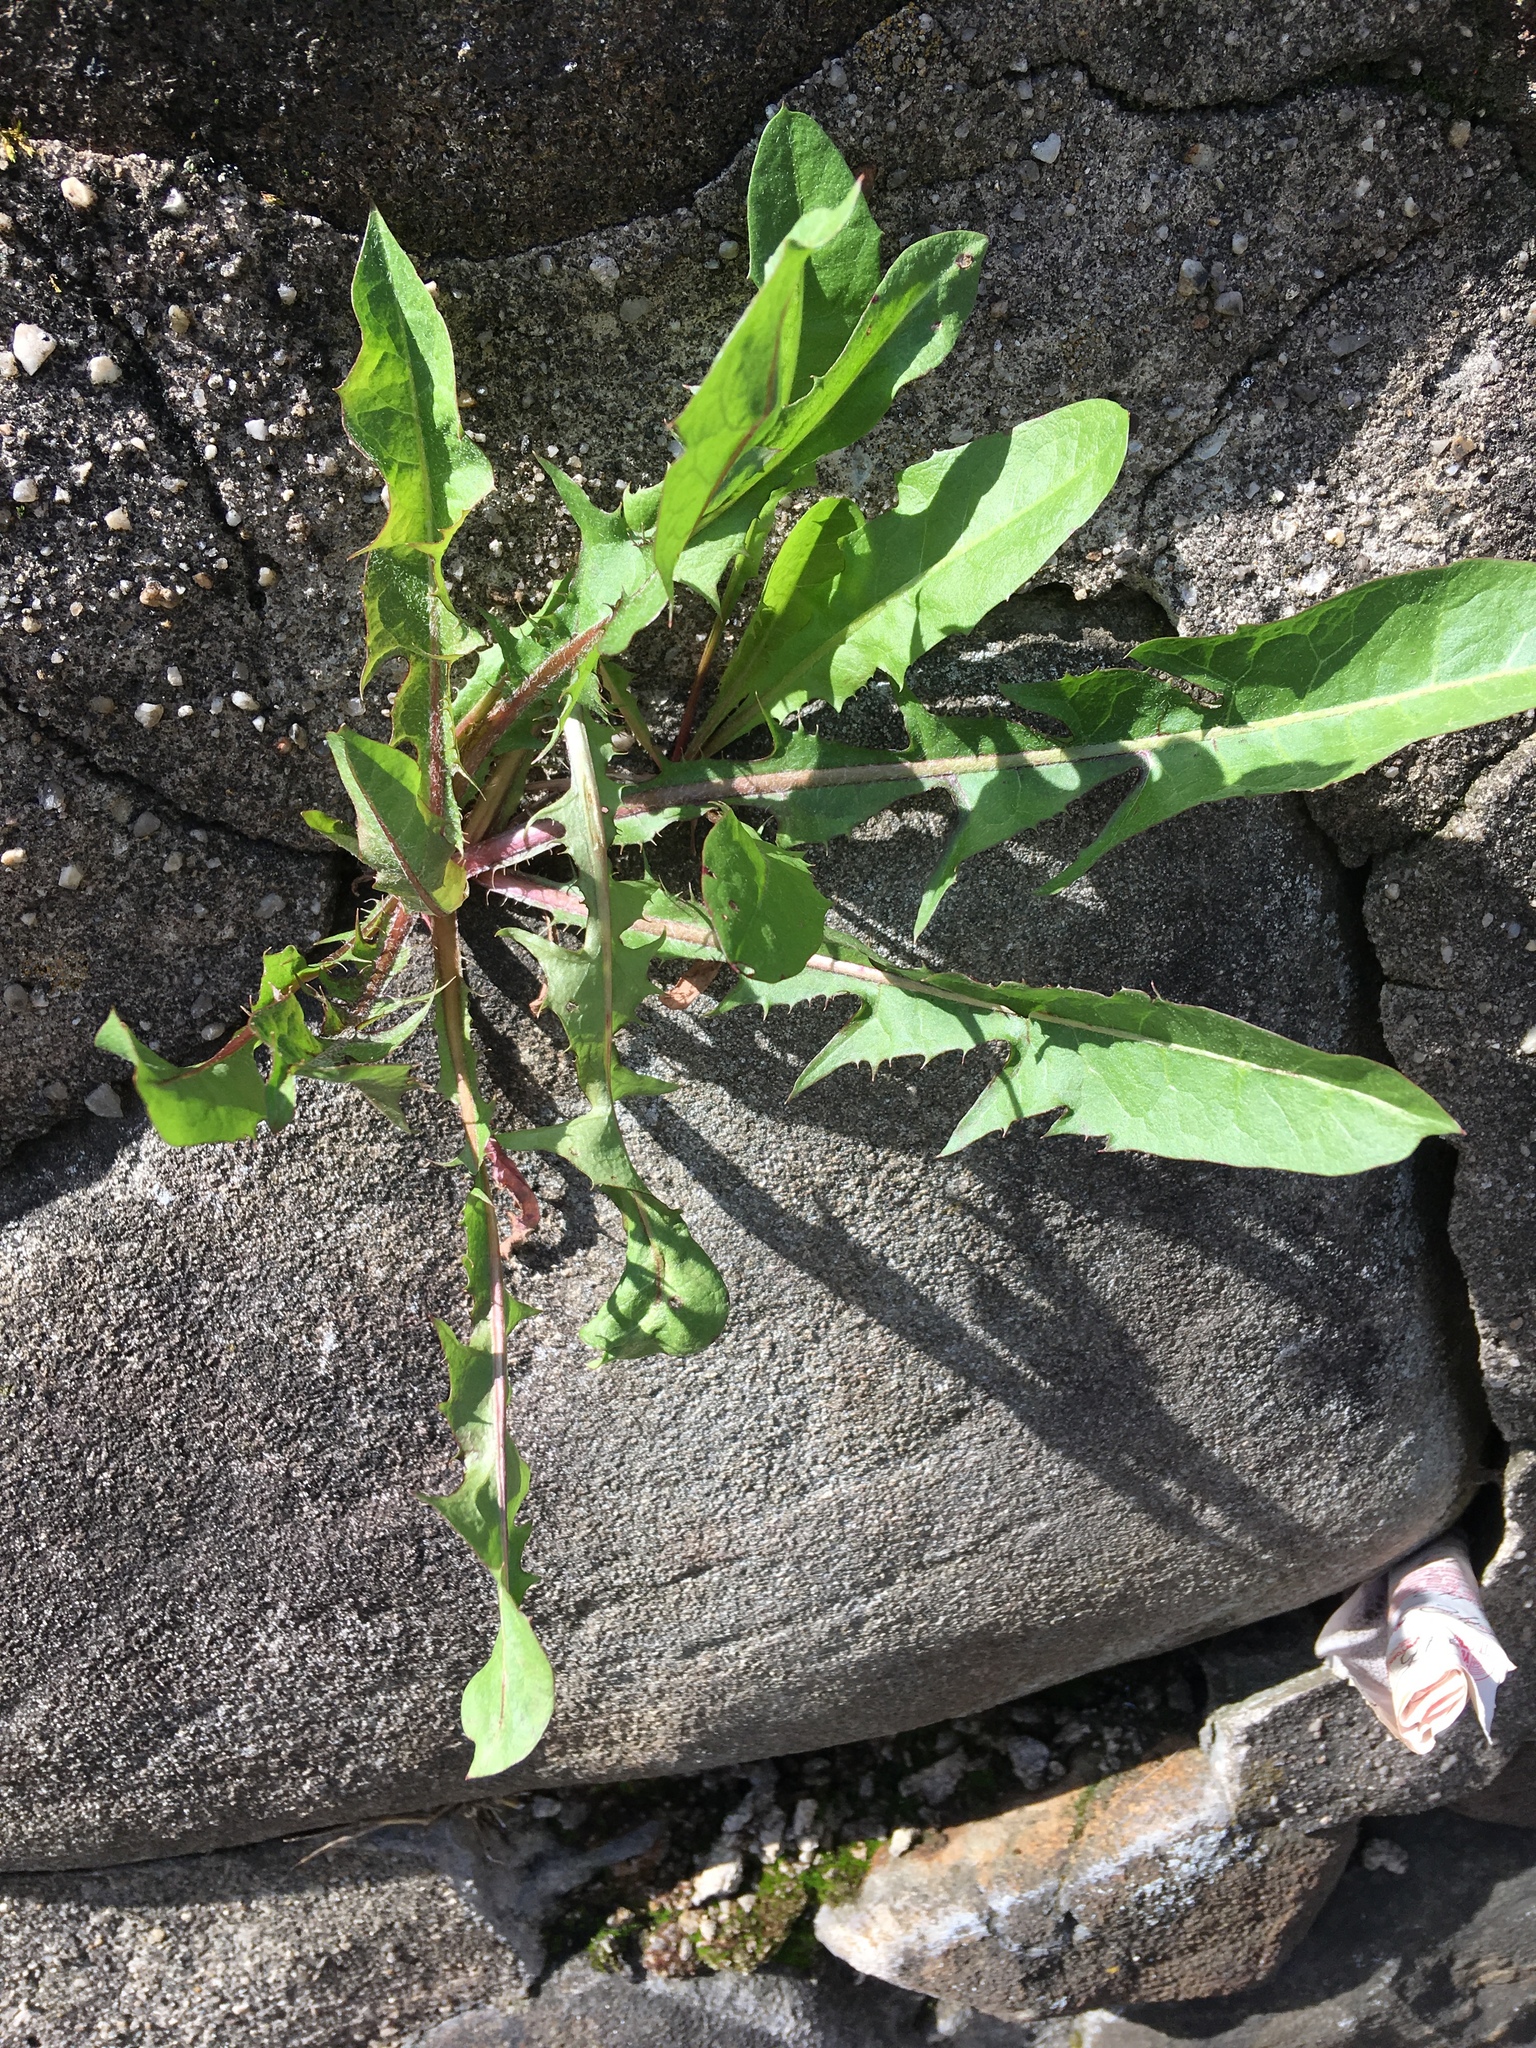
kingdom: Plantae
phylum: Tracheophyta
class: Magnoliopsida
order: Asterales
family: Asteraceae
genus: Taraxacum
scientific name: Taraxacum officinale
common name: Common dandelion
